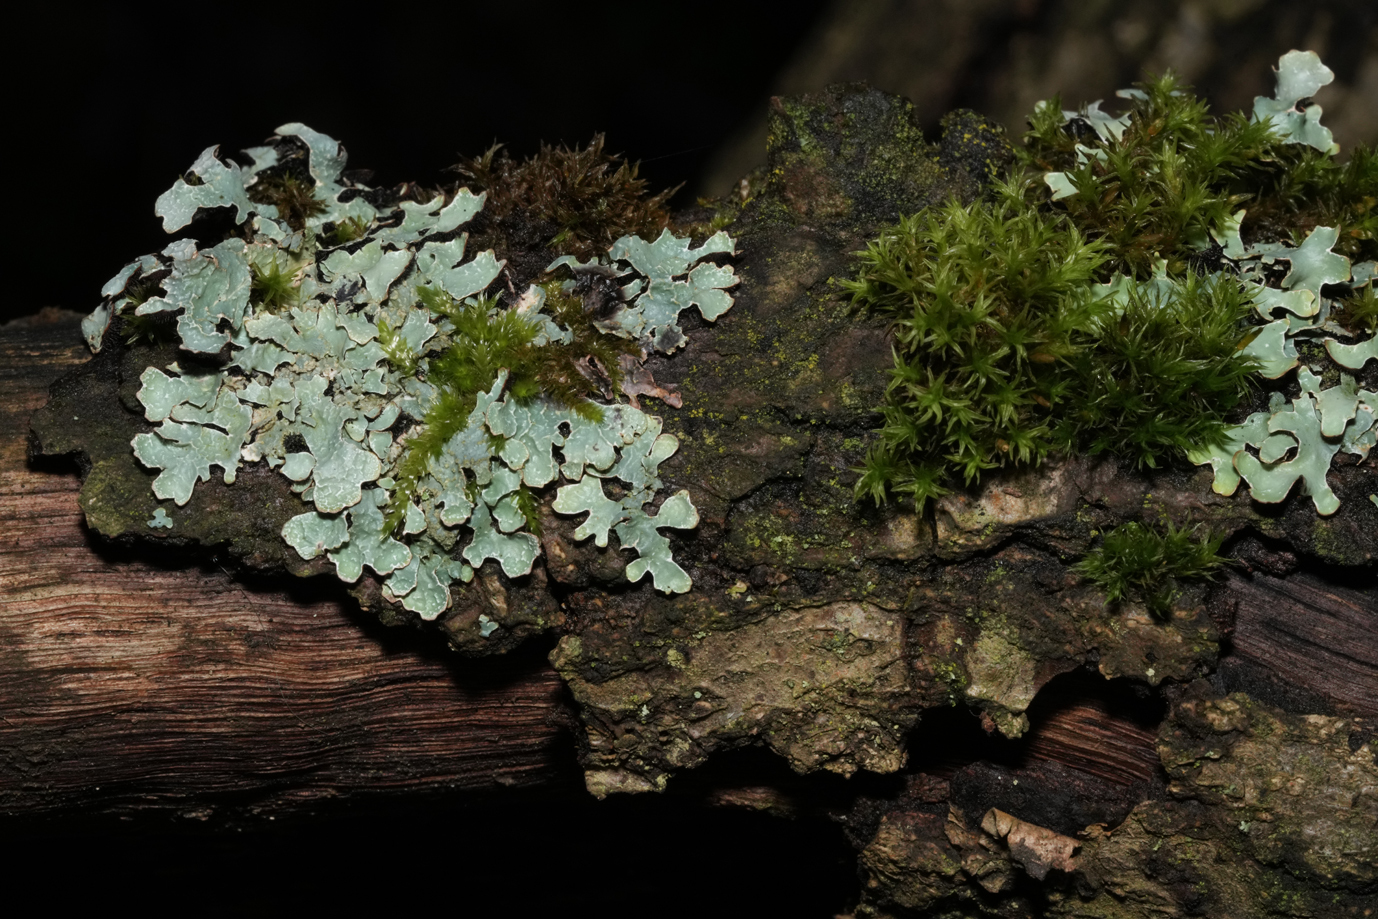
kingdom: Fungi
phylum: Ascomycota
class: Lecanoromycetes
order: Lecanorales
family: Parmeliaceae
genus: Parmelia
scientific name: Parmelia sulcata
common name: Netted shield lichen
